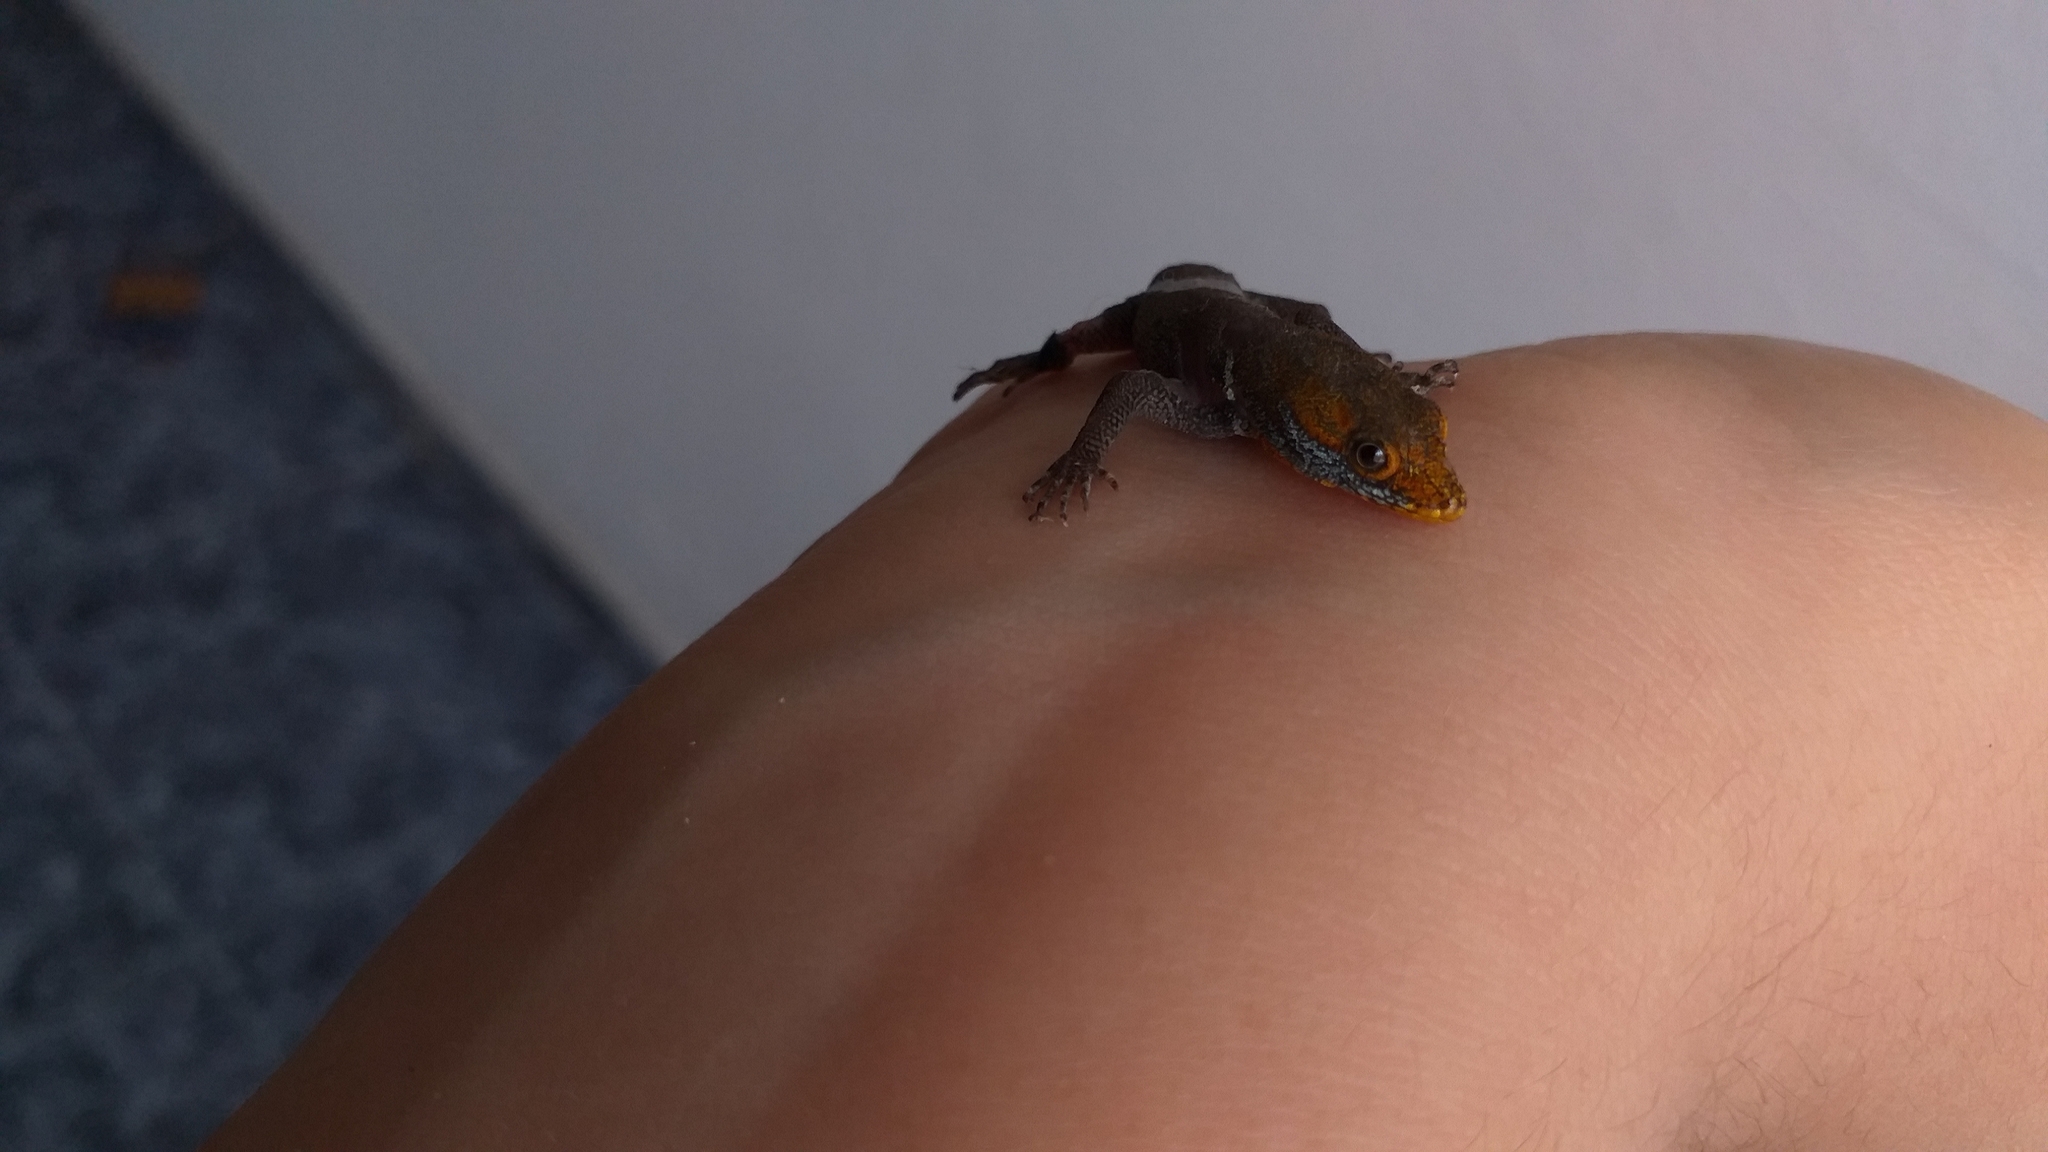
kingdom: Animalia
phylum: Chordata
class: Squamata
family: Sphaerodactylidae
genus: Gonatodes
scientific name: Gonatodes albogularis
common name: Yellow-headed gecko
